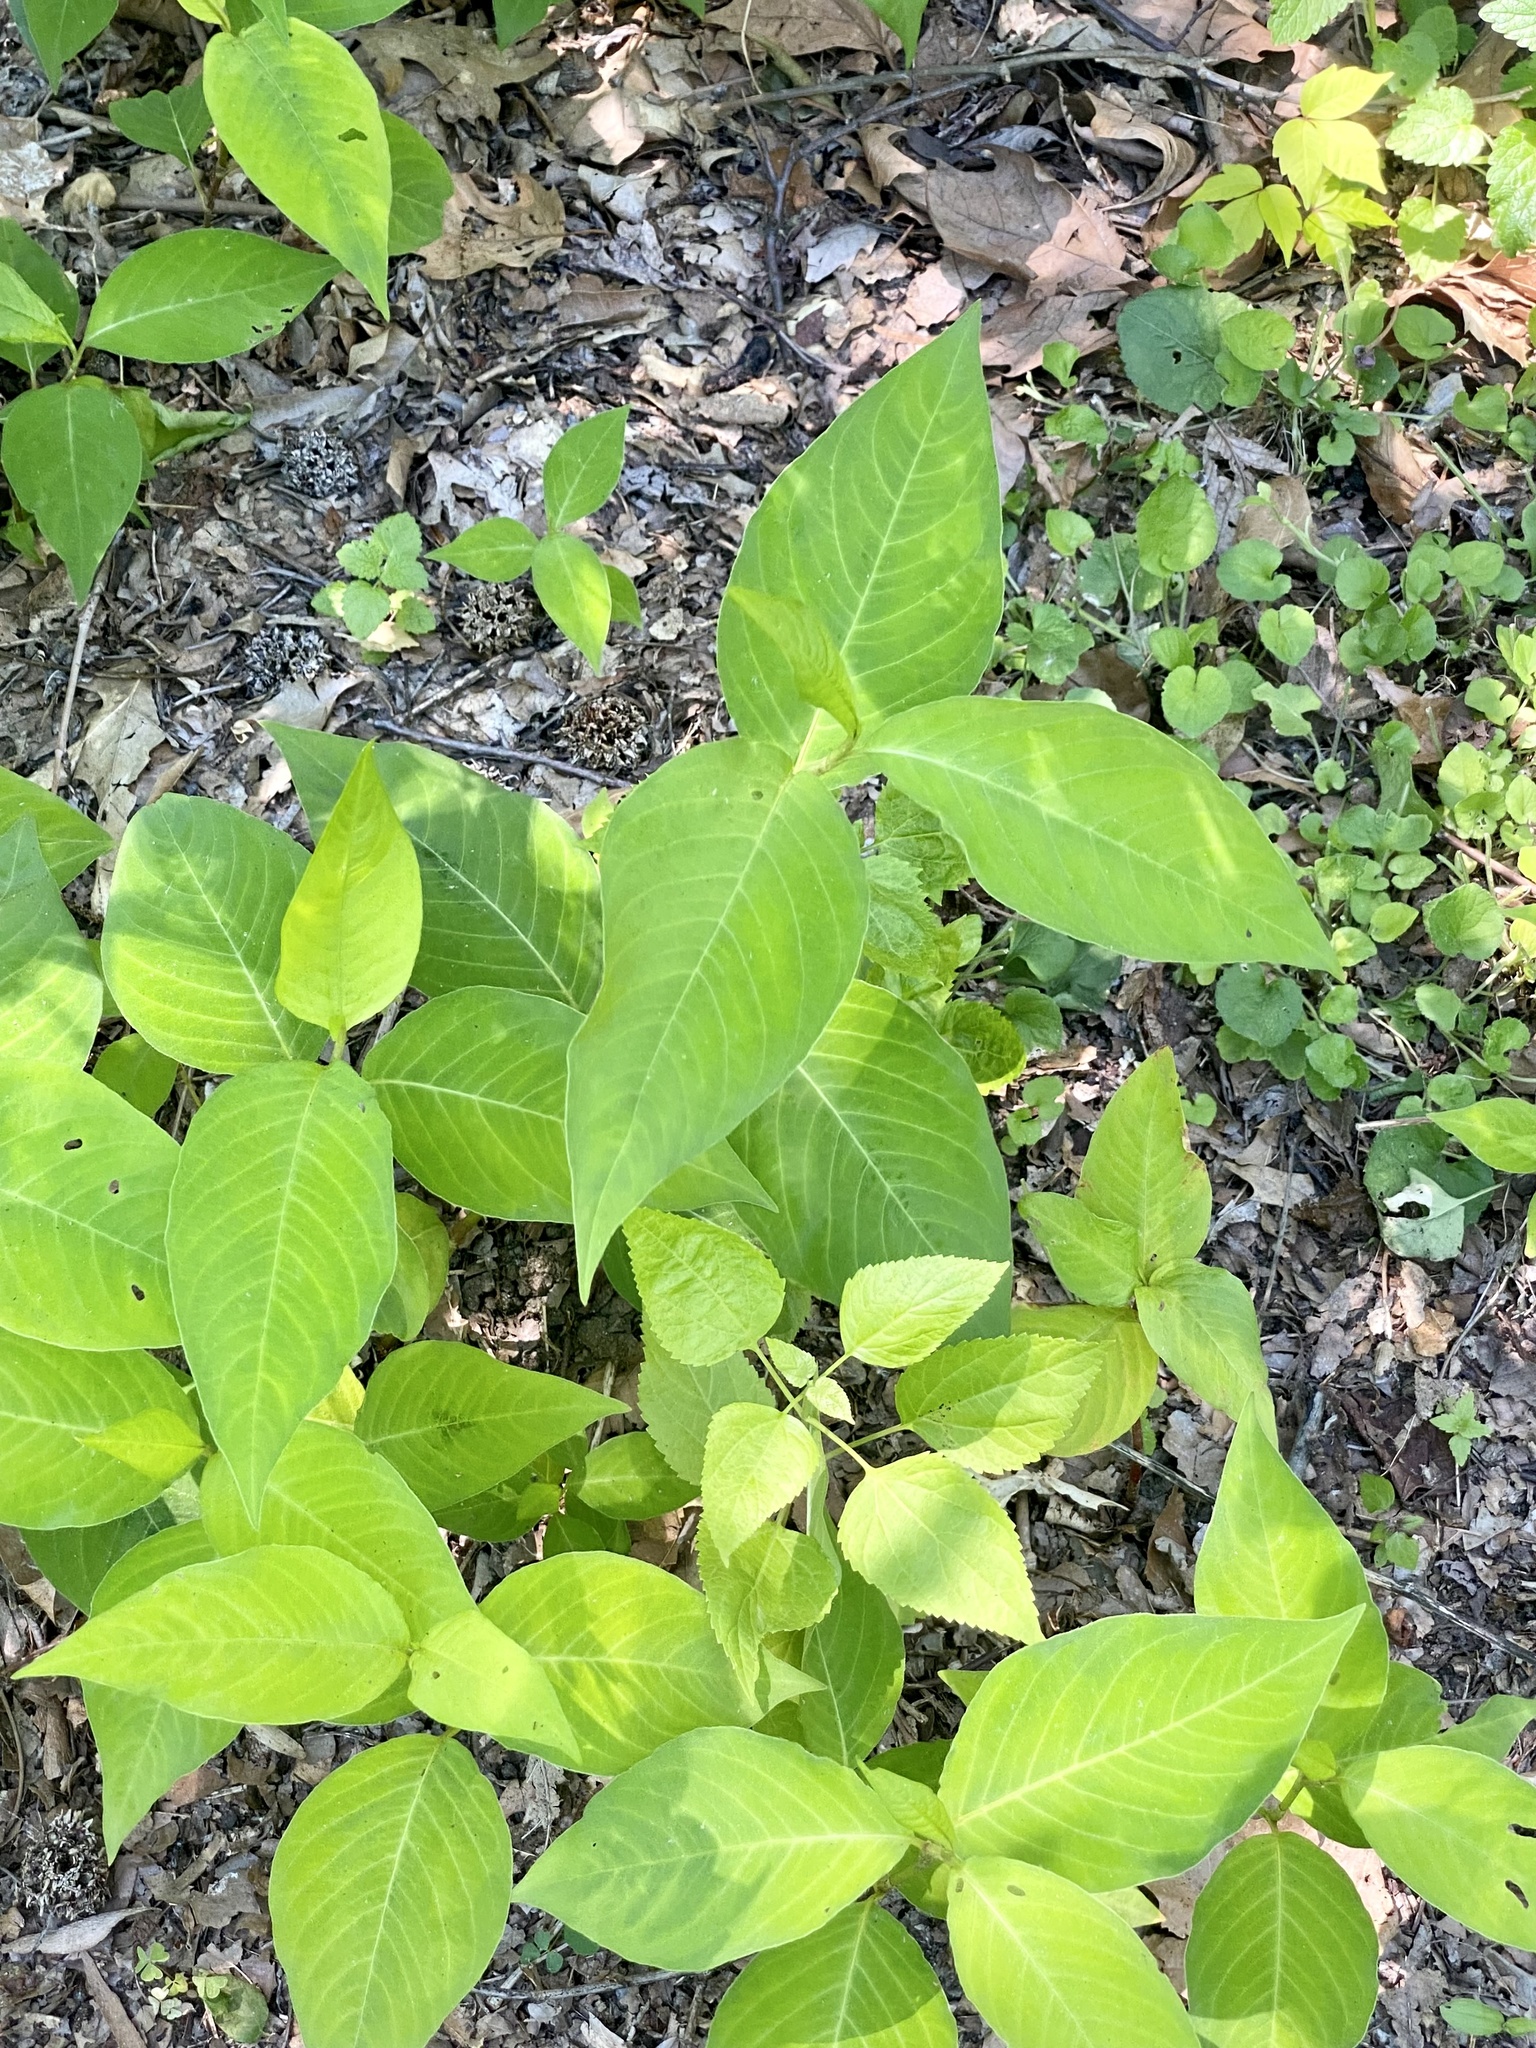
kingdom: Plantae
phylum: Tracheophyta
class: Magnoliopsida
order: Caryophyllales
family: Polygonaceae
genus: Persicaria
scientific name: Persicaria virginiana
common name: Jumpseed
